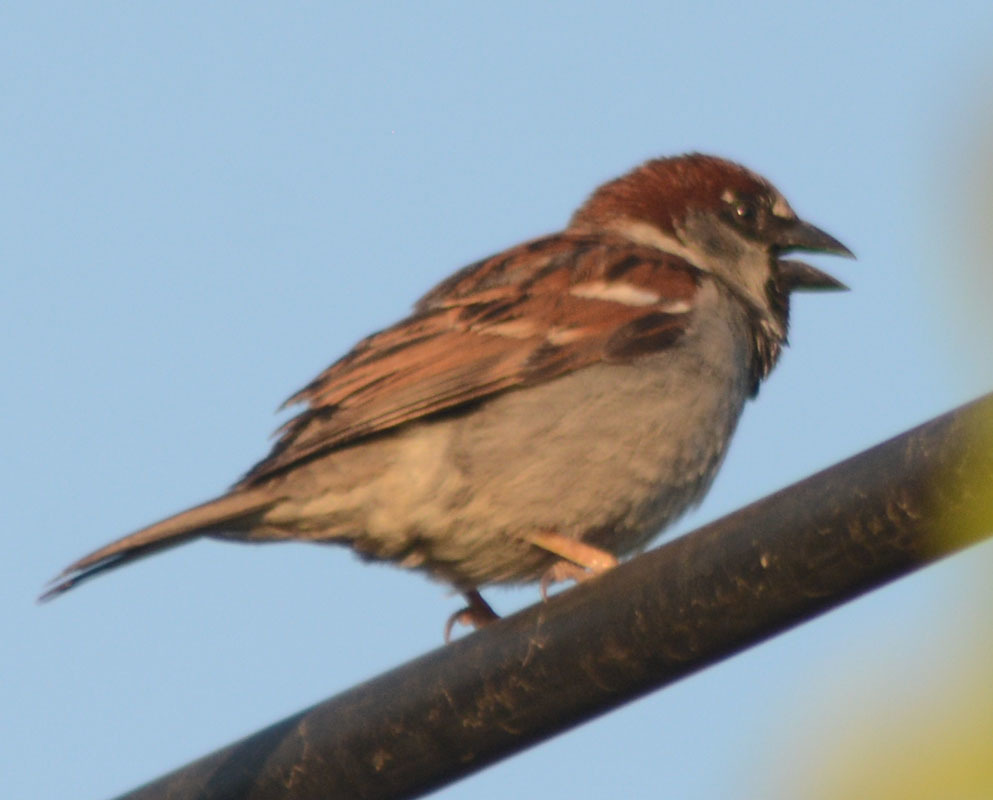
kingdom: Animalia
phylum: Chordata
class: Aves
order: Passeriformes
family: Passeridae
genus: Passer
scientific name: Passer domesticus
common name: House sparrow
